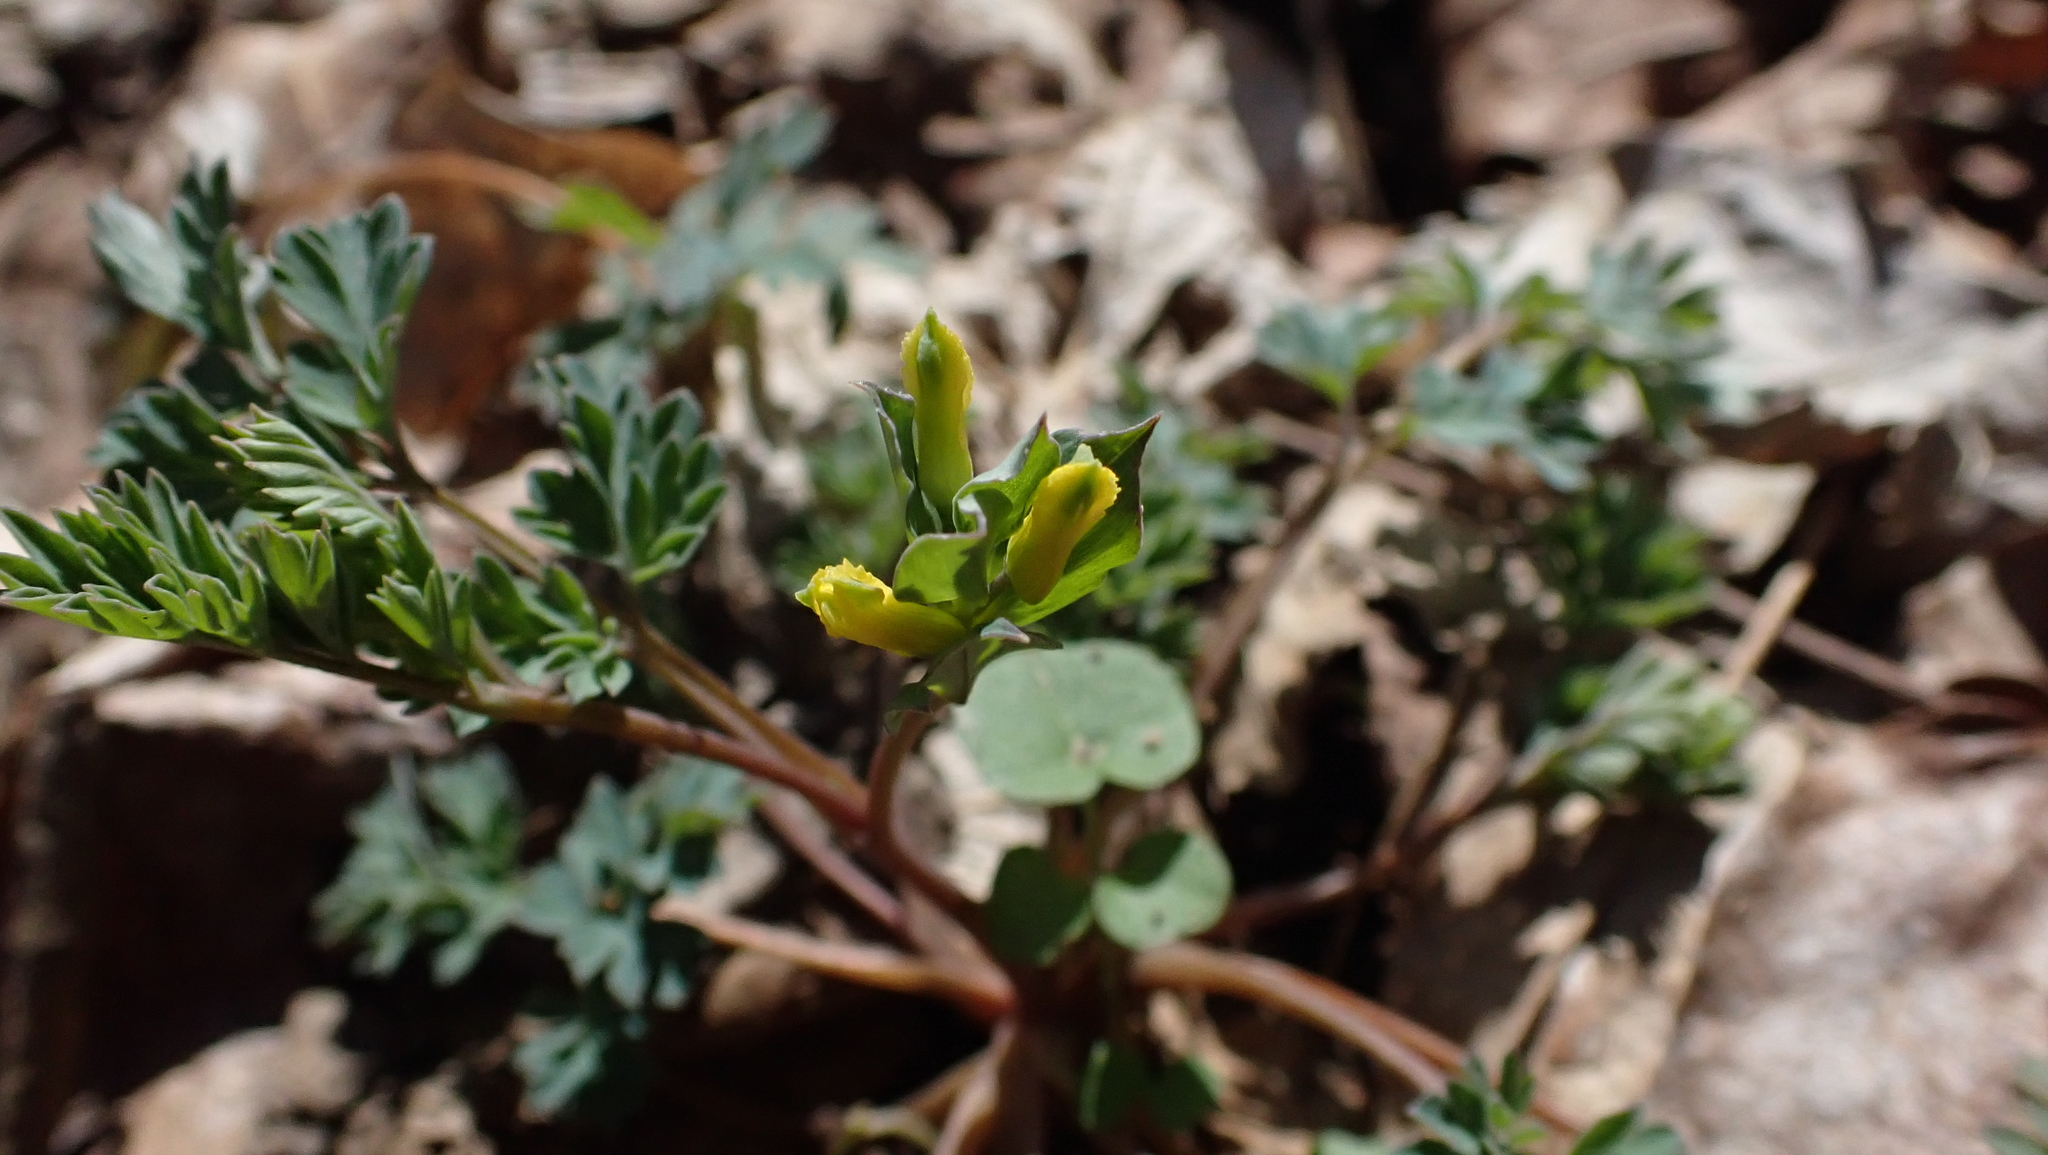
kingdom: Plantae
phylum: Tracheophyta
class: Magnoliopsida
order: Ranunculales
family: Papaveraceae
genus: Corydalis
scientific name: Corydalis flavula
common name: Yellow corydalis
